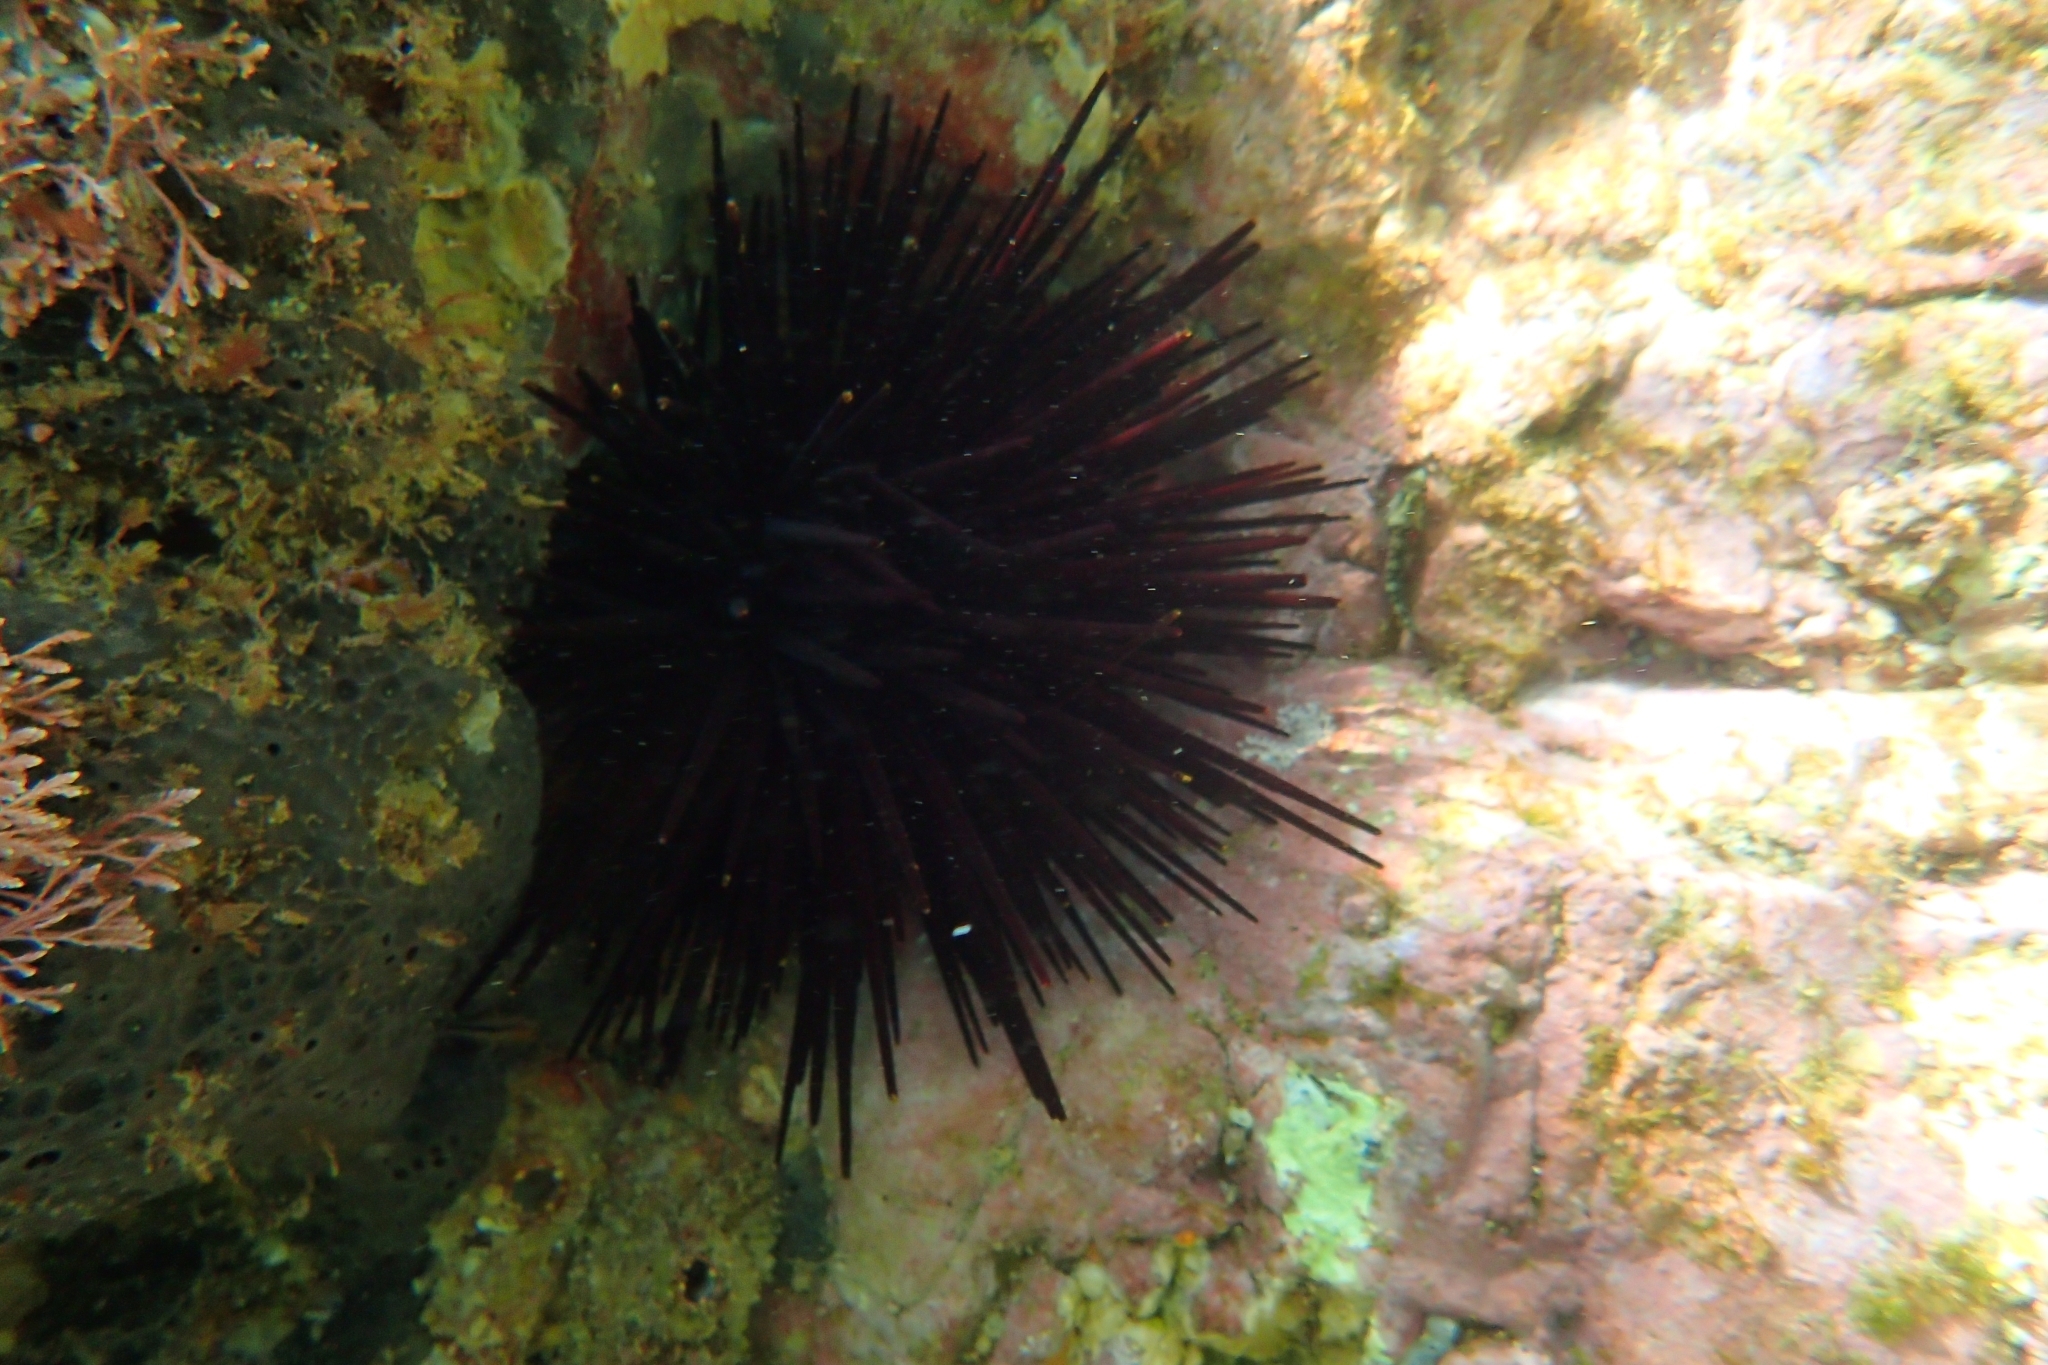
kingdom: Animalia
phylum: Echinodermata
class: Echinoidea
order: Diadematoida
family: Diadematidae
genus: Centrostephanus
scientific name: Centrostephanus rodgersii
